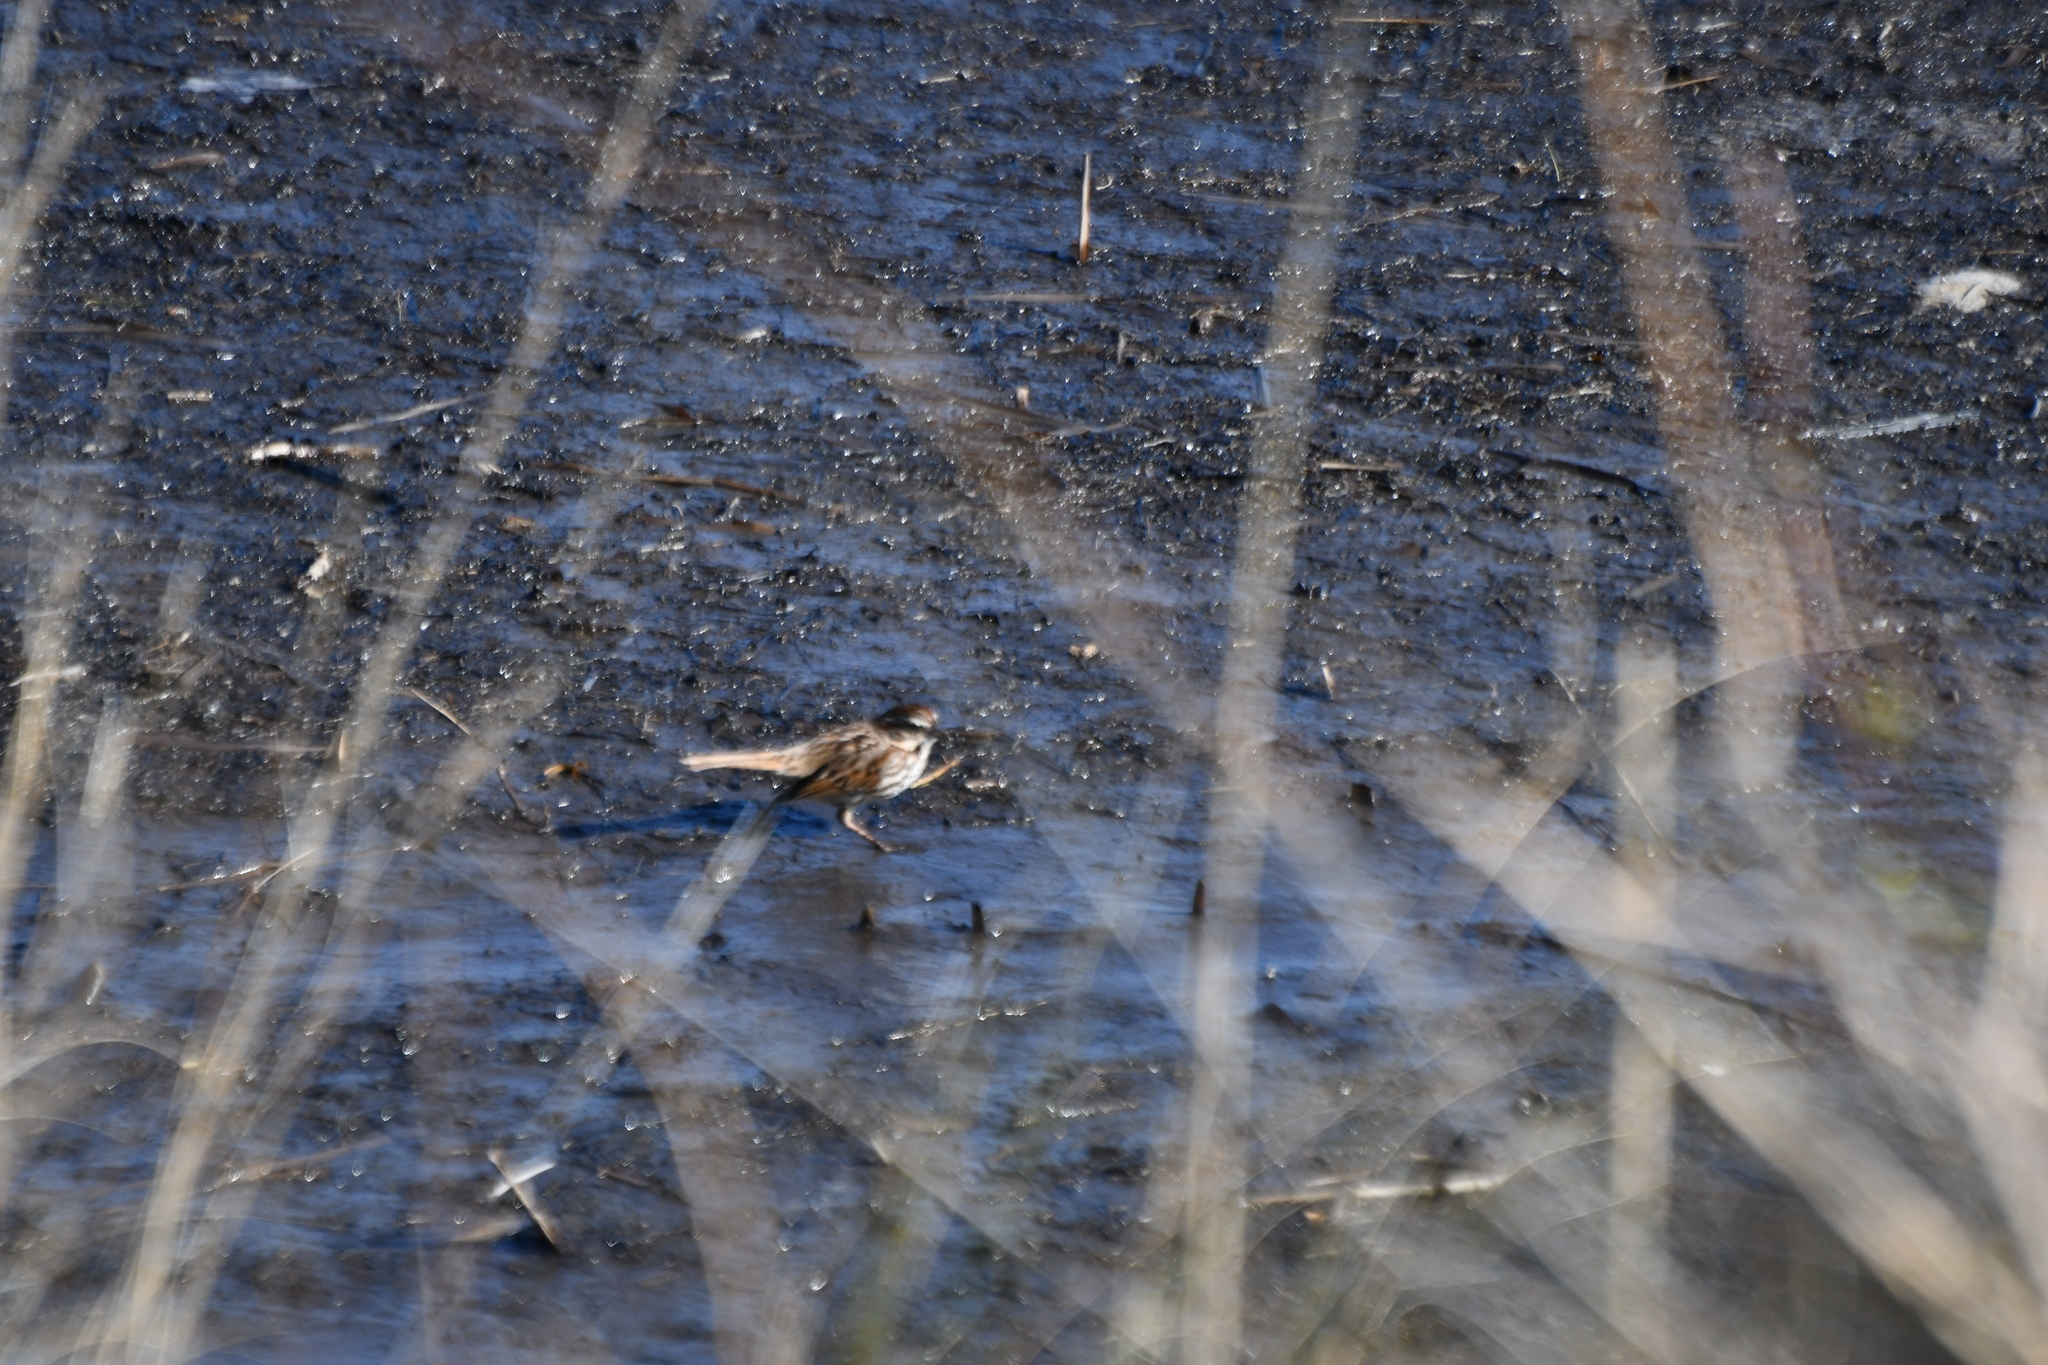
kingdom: Animalia
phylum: Chordata
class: Aves
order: Passeriformes
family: Passerellidae
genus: Melospiza
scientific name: Melospiza melodia
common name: Song sparrow
